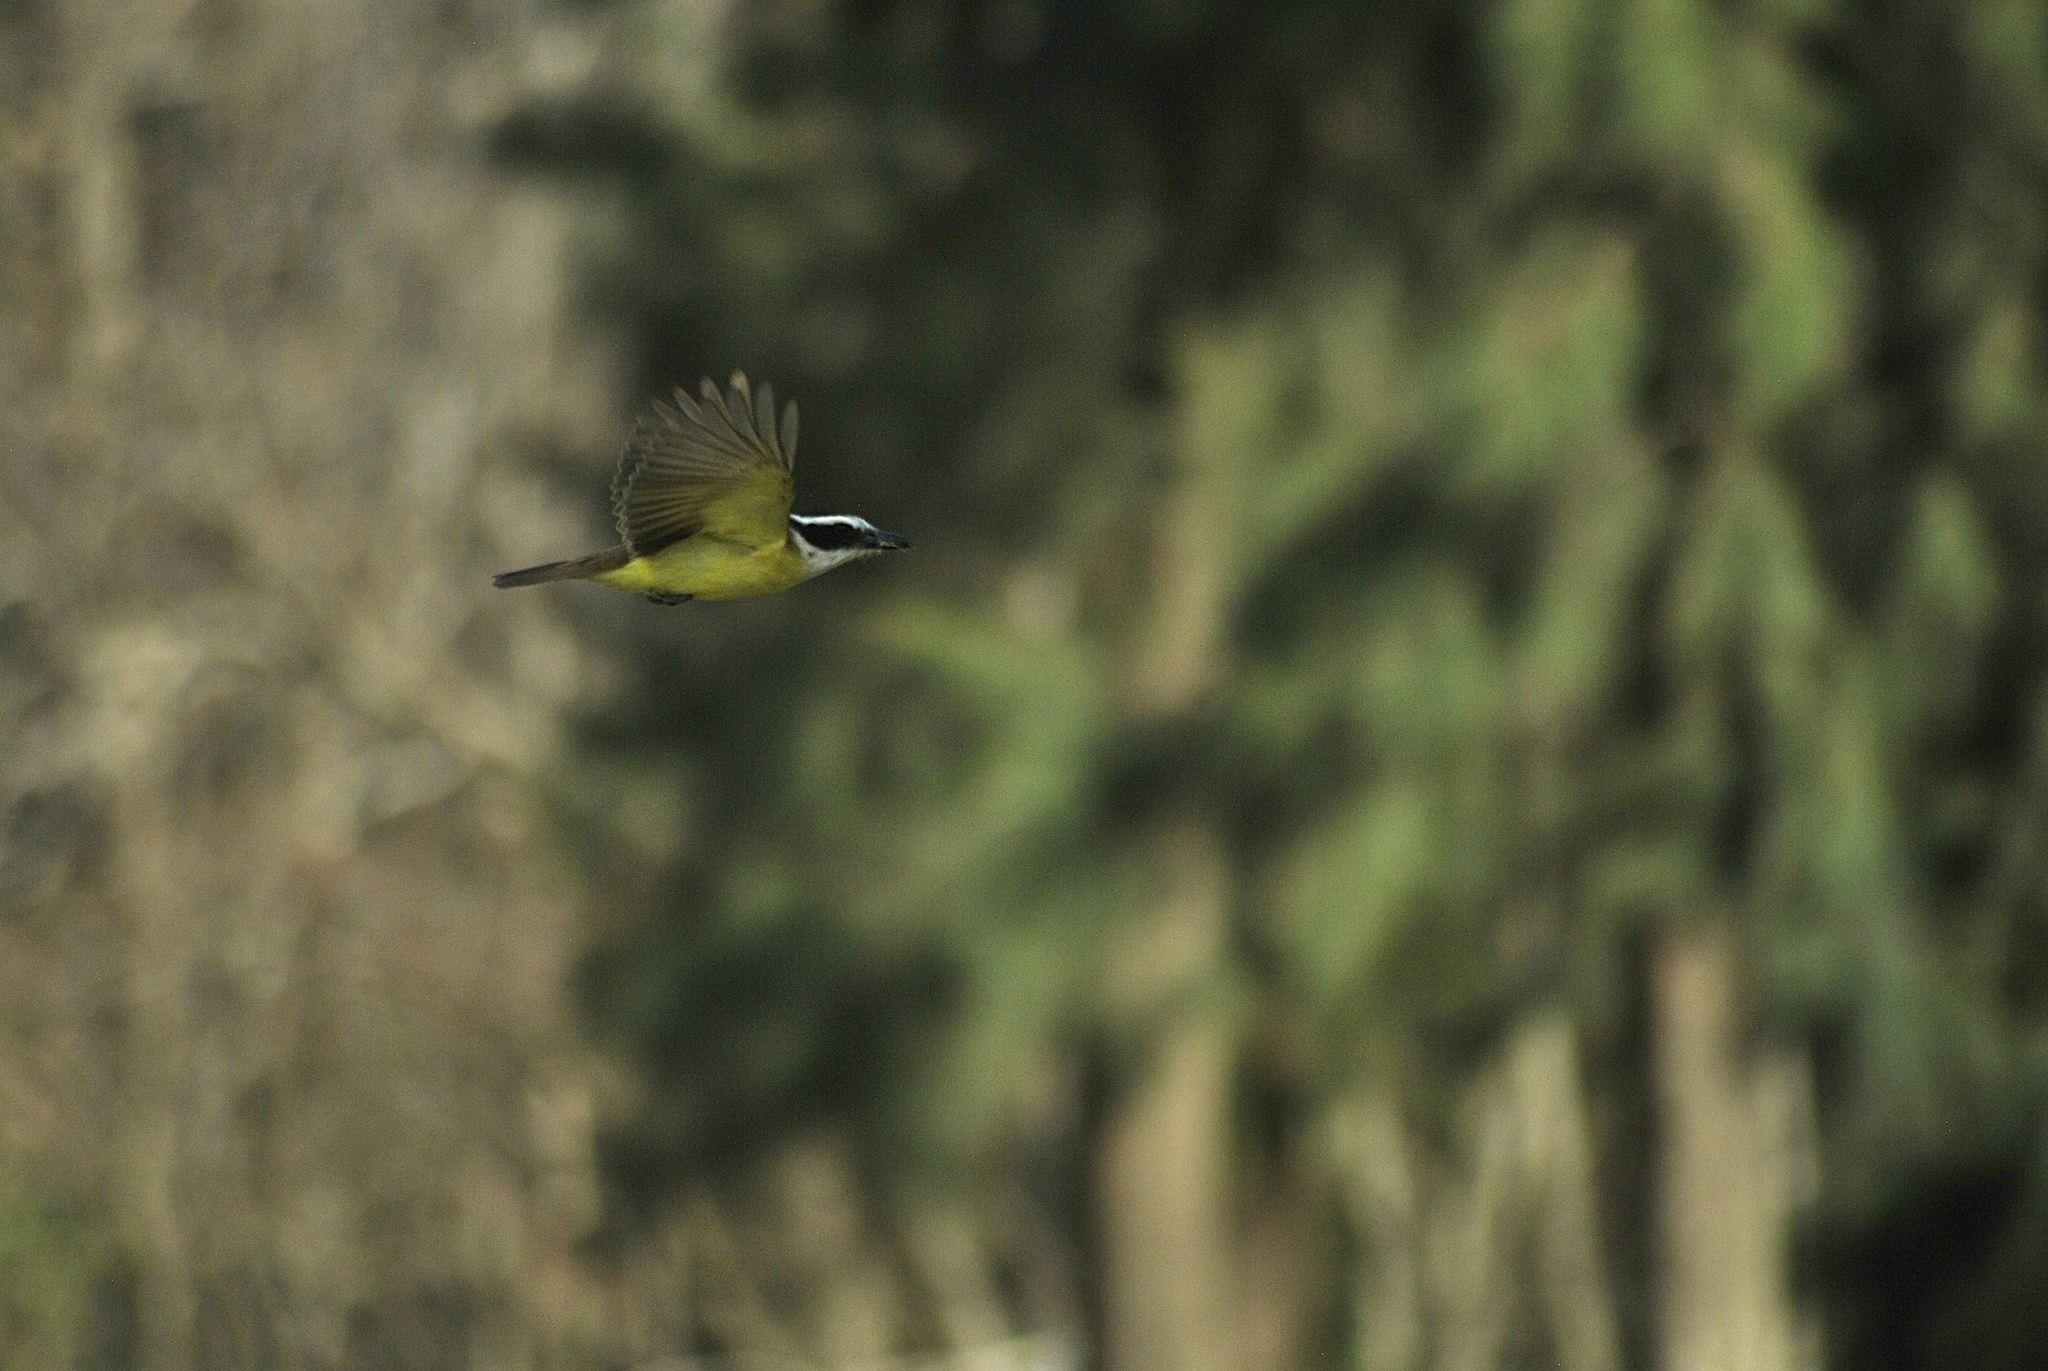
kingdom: Animalia
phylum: Chordata
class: Aves
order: Passeriformes
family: Tyrannidae
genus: Pitangus
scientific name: Pitangus sulphuratus
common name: Great kiskadee
